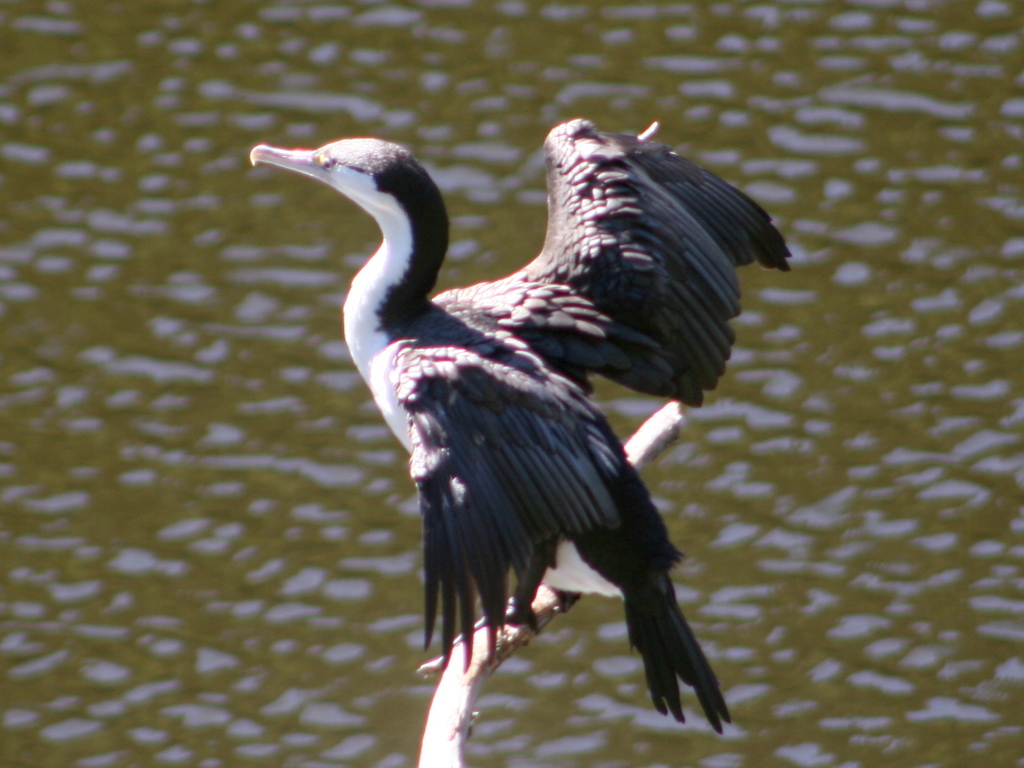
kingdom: Animalia
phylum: Chordata
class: Aves
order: Suliformes
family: Phalacrocoracidae
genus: Phalacrocorax
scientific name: Phalacrocorax varius
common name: Pied cormorant
